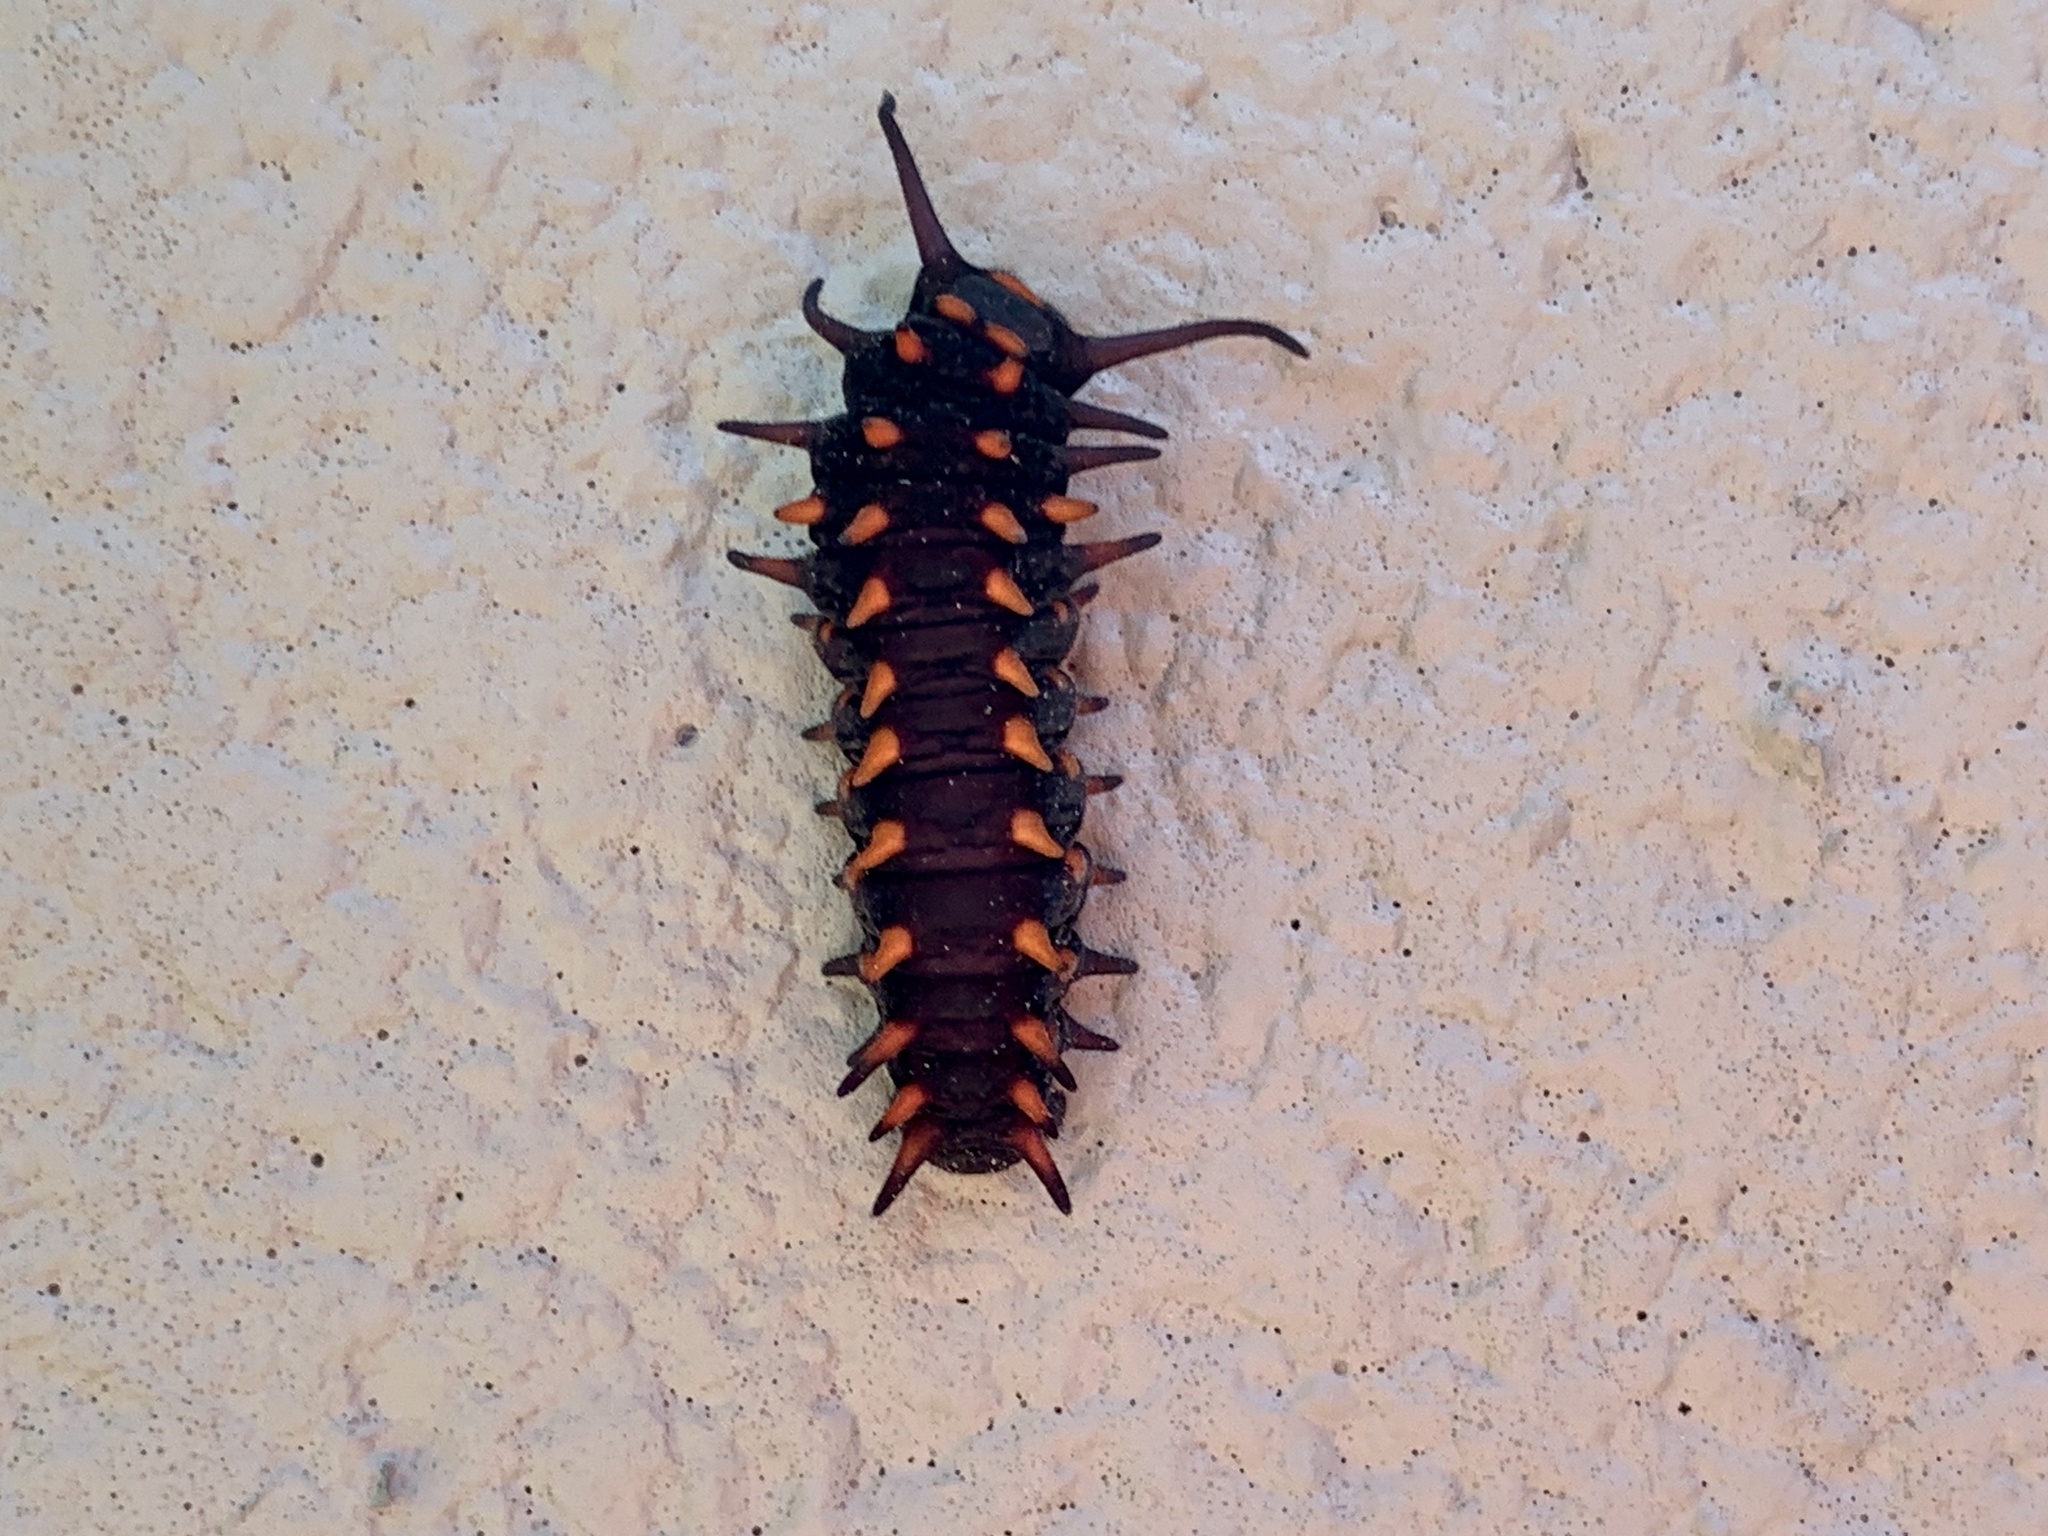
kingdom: Animalia
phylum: Arthropoda
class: Insecta
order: Lepidoptera
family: Papilionidae
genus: Battus
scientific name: Battus philenor
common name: Pipevine swallowtail
